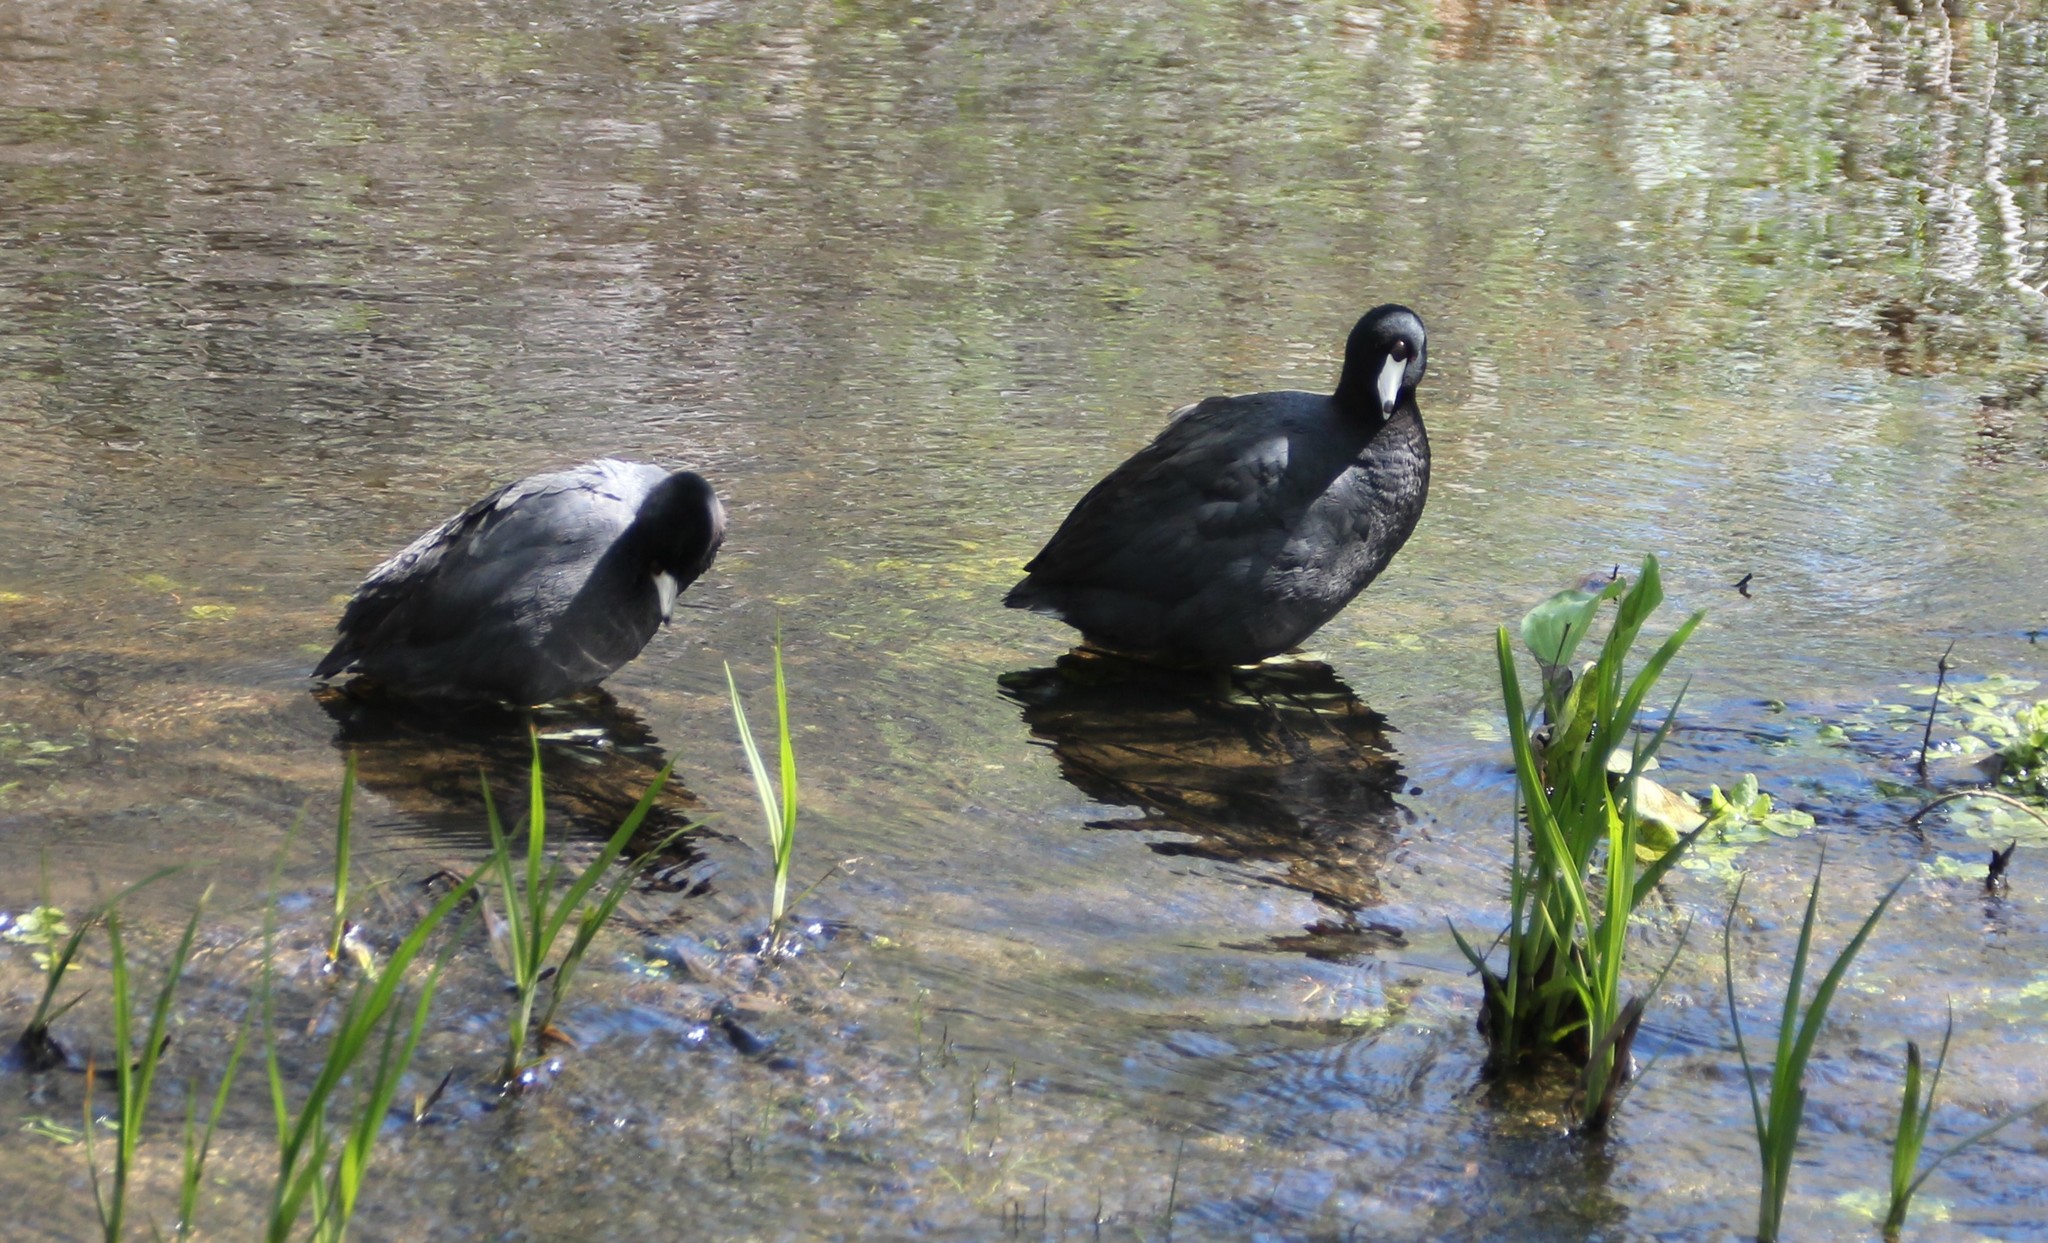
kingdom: Animalia
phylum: Chordata
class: Aves
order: Gruiformes
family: Rallidae
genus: Fulica
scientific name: Fulica americana
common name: American coot
